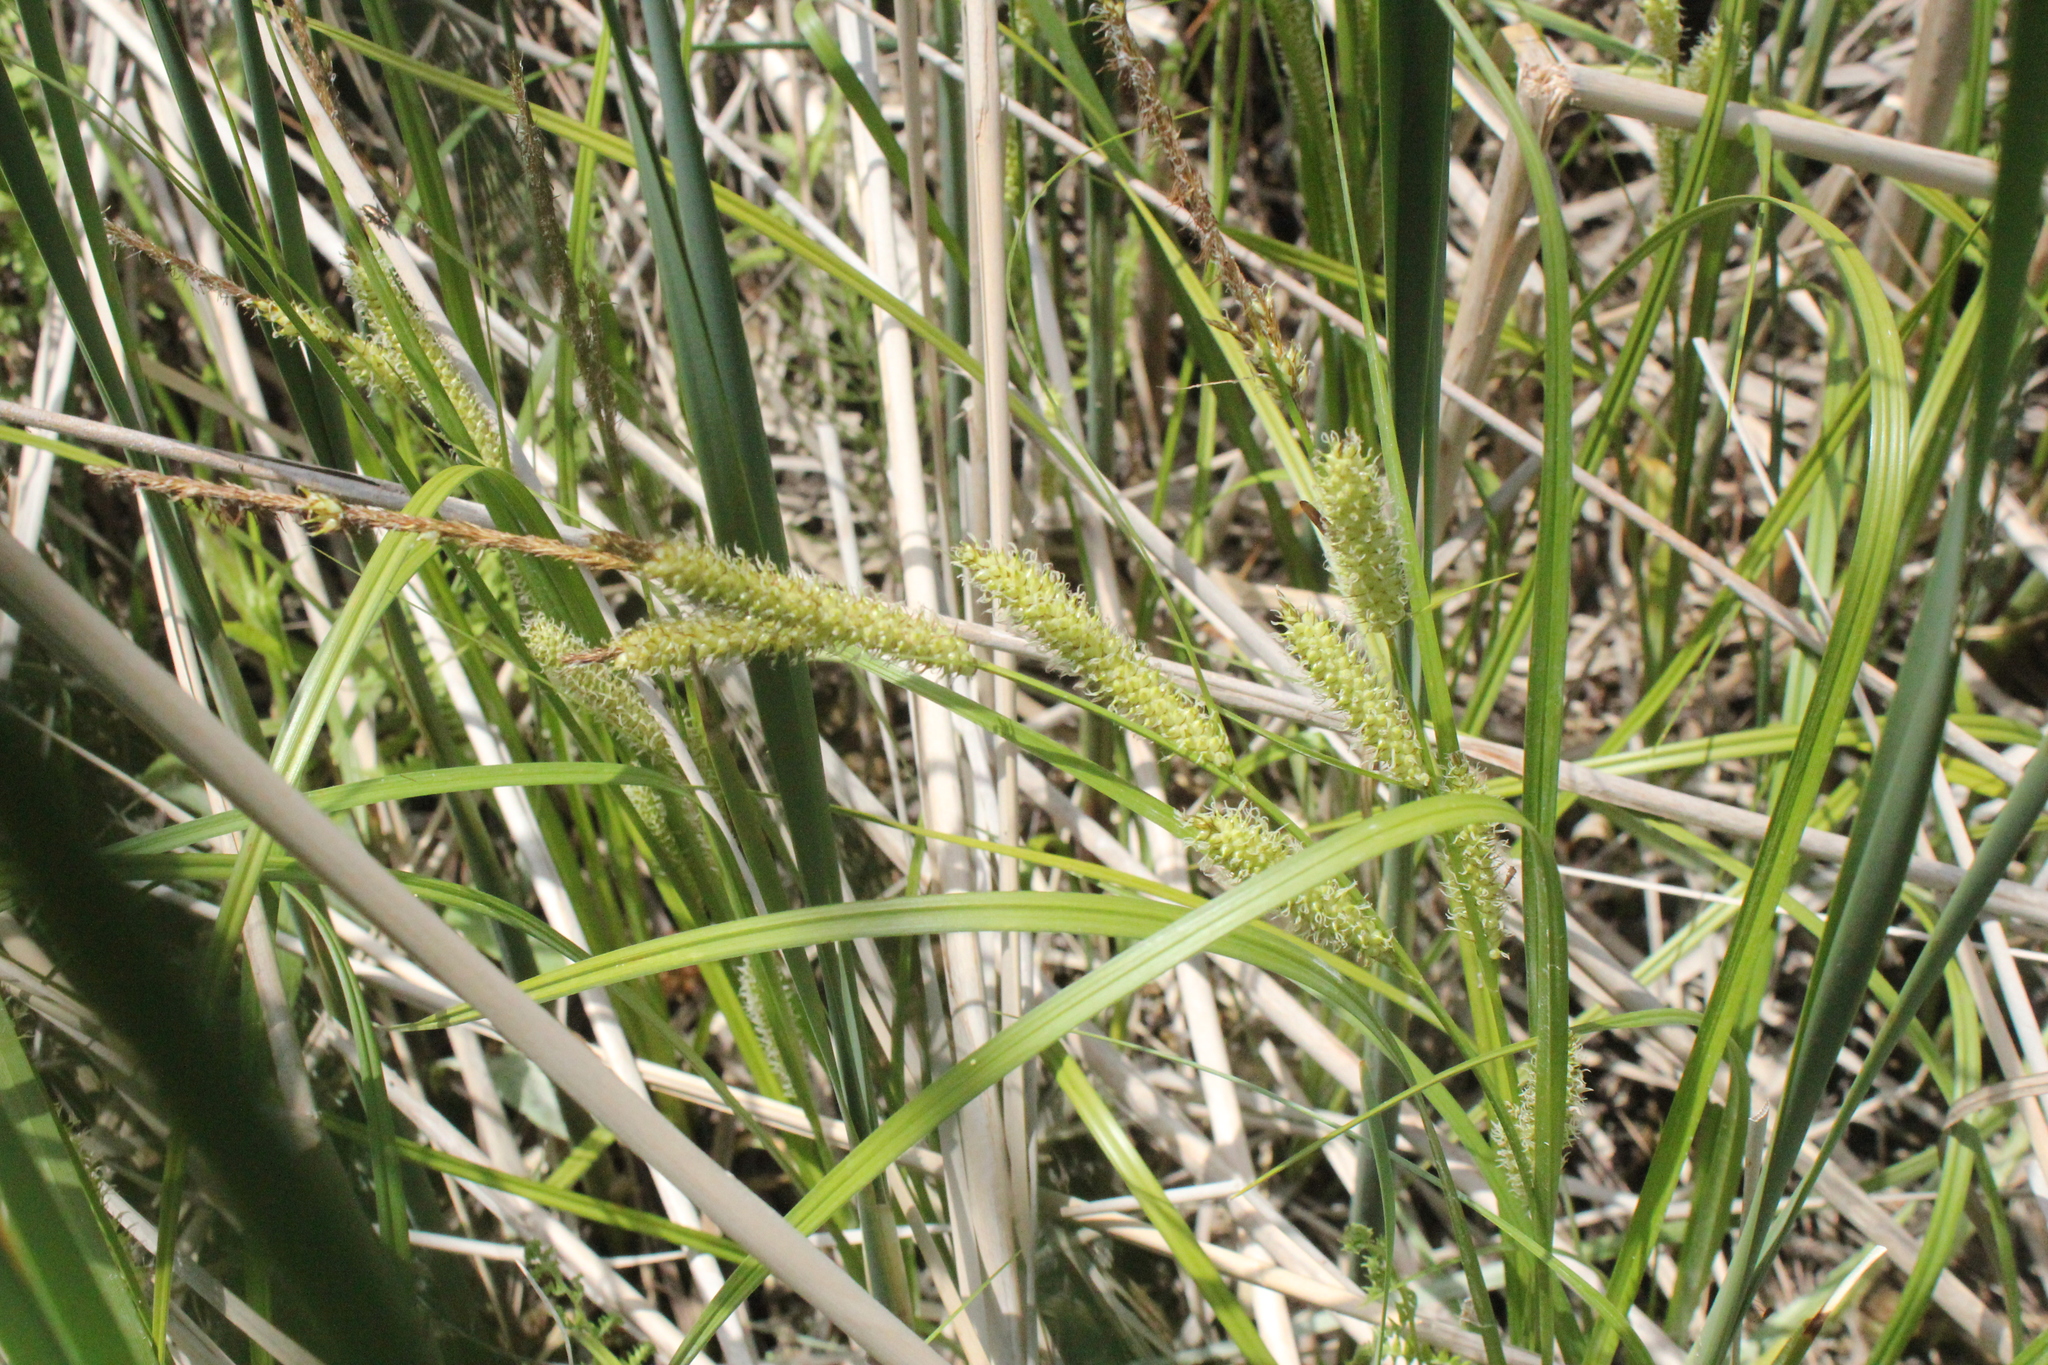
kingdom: Plantae
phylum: Tracheophyta
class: Liliopsida
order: Poales
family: Cyperaceae
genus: Carex
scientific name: Carex utriculata
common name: Beaked sedge
